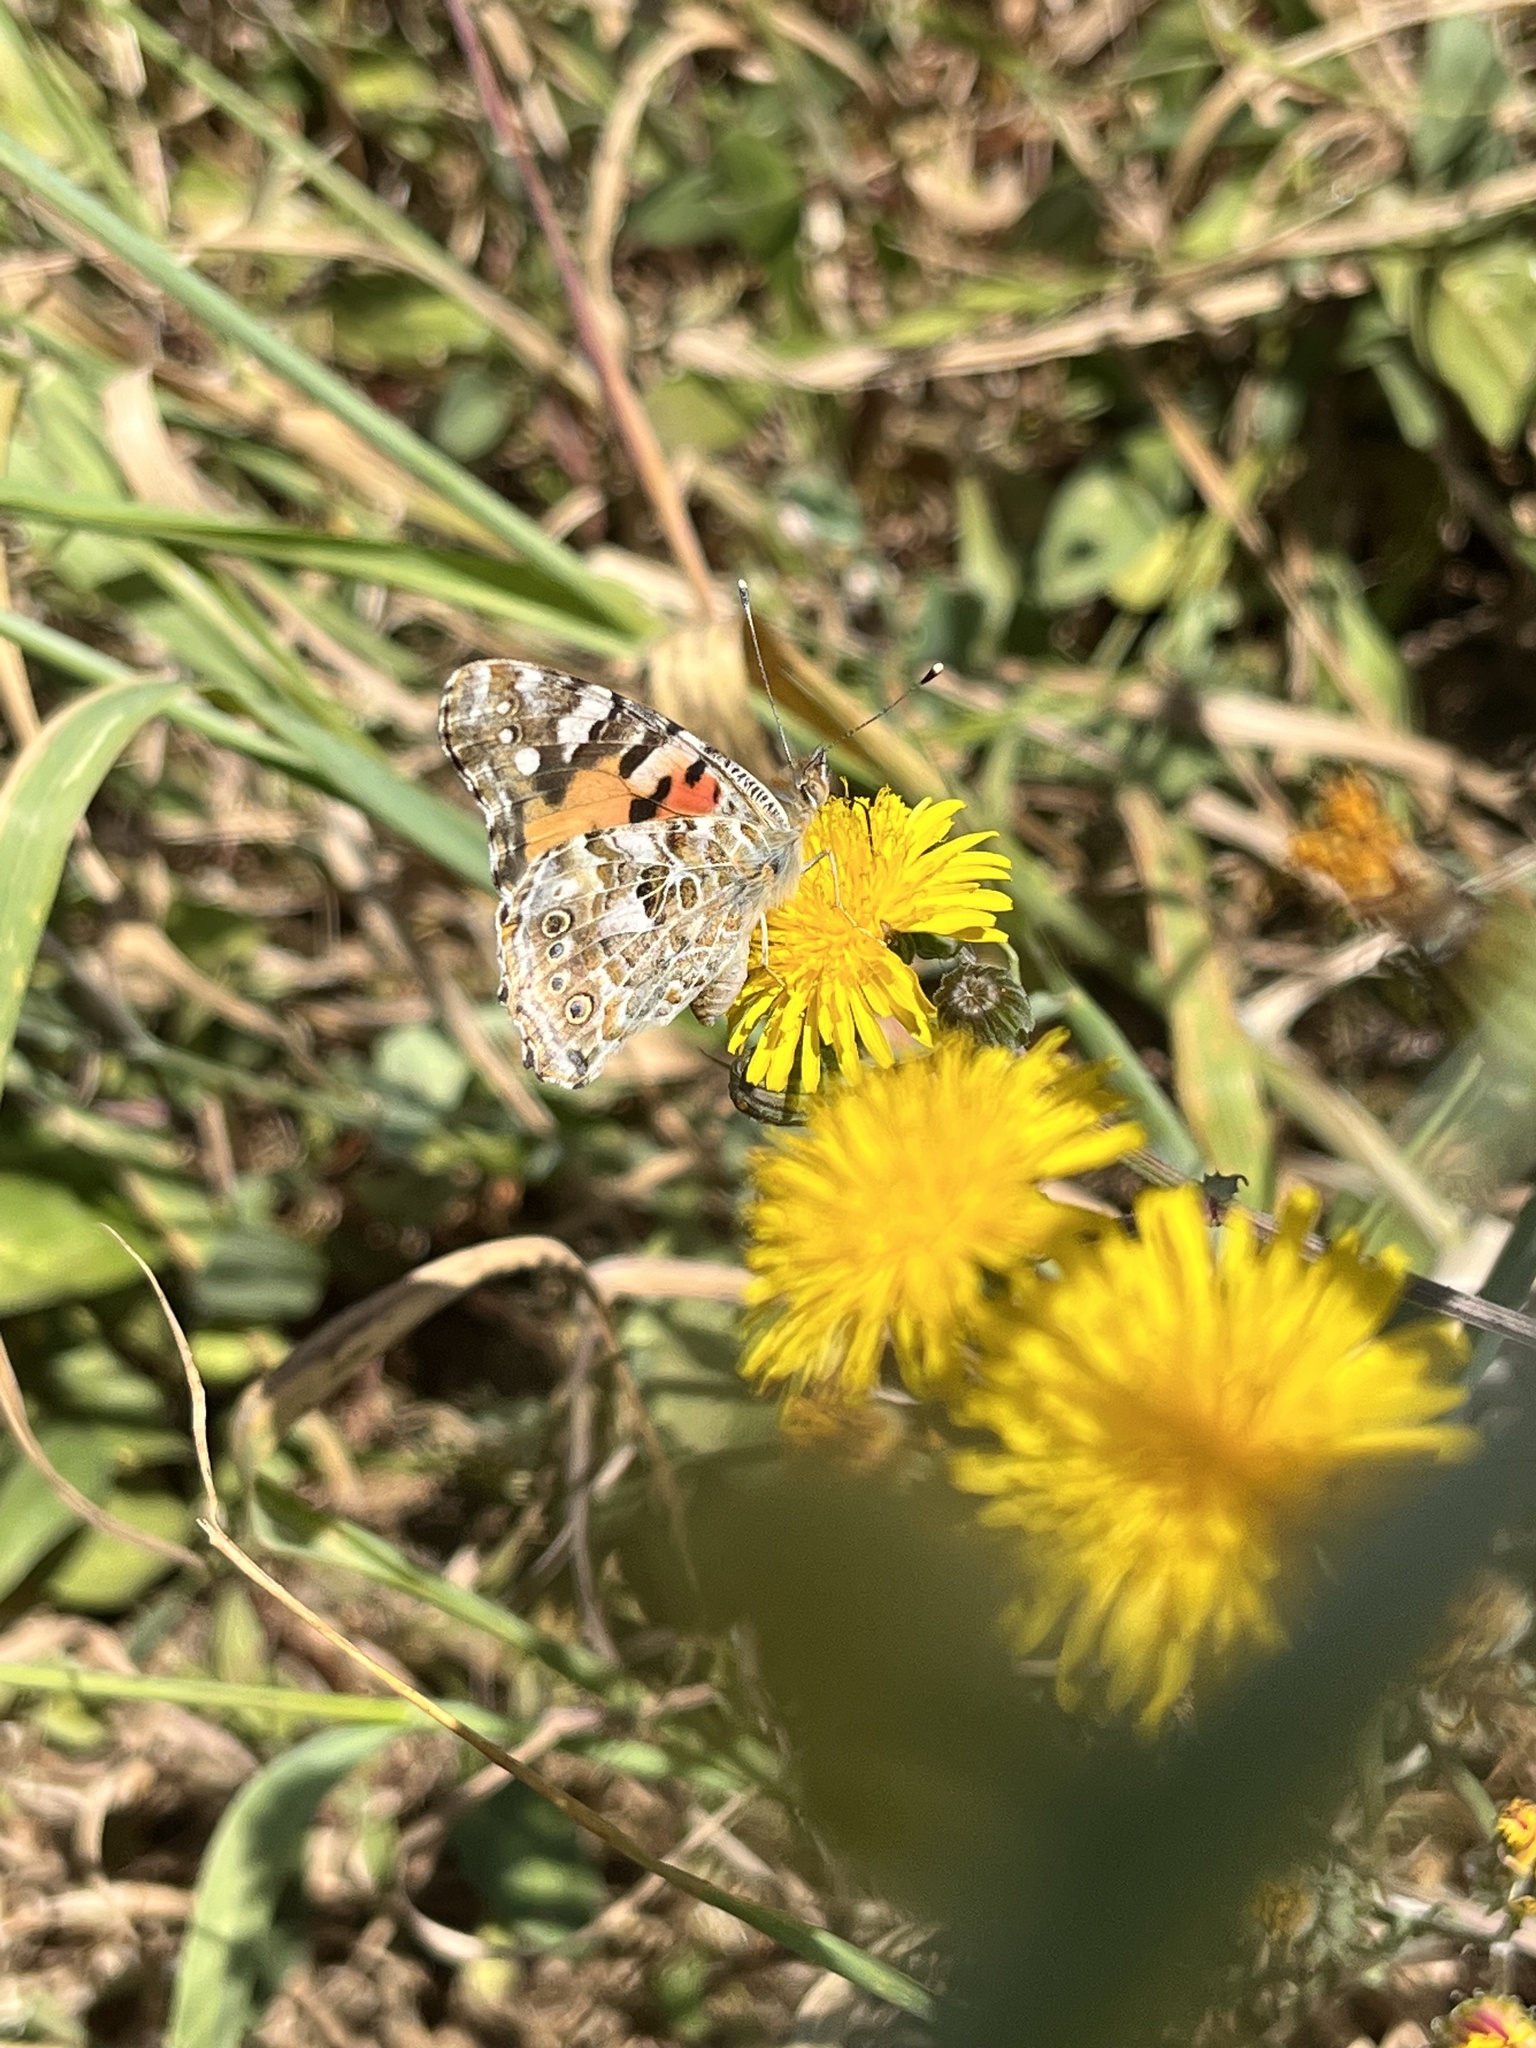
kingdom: Animalia
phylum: Arthropoda
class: Insecta
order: Lepidoptera
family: Nymphalidae
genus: Vanessa
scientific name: Vanessa cardui
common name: Painted lady
